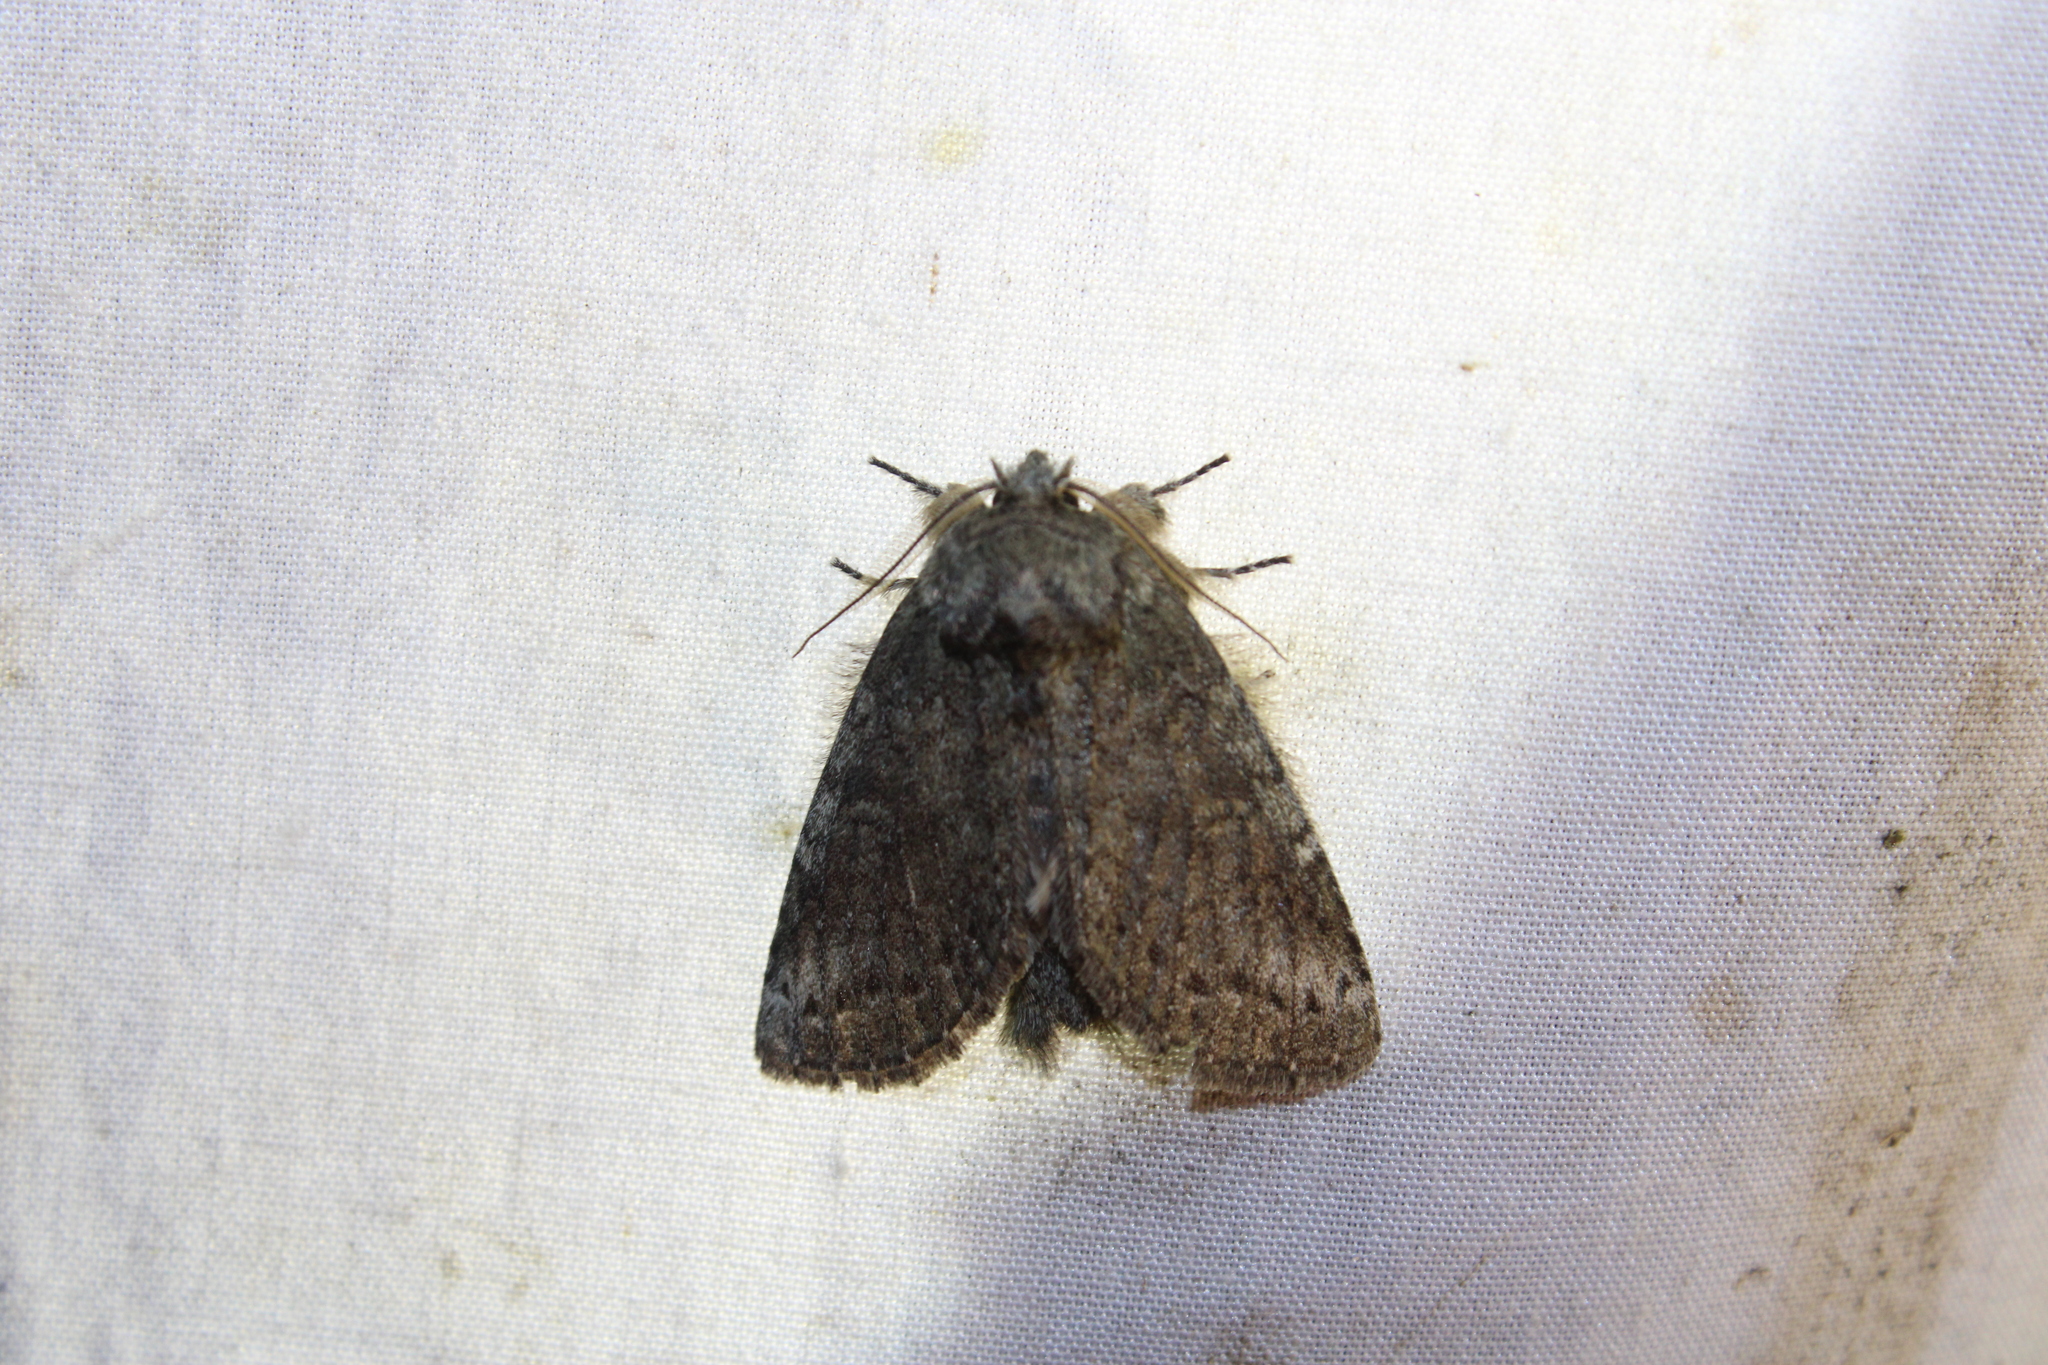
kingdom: Animalia
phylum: Arthropoda
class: Insecta
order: Lepidoptera
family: Notodontidae
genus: Disphragis
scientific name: Disphragis Cecrita guttivitta
